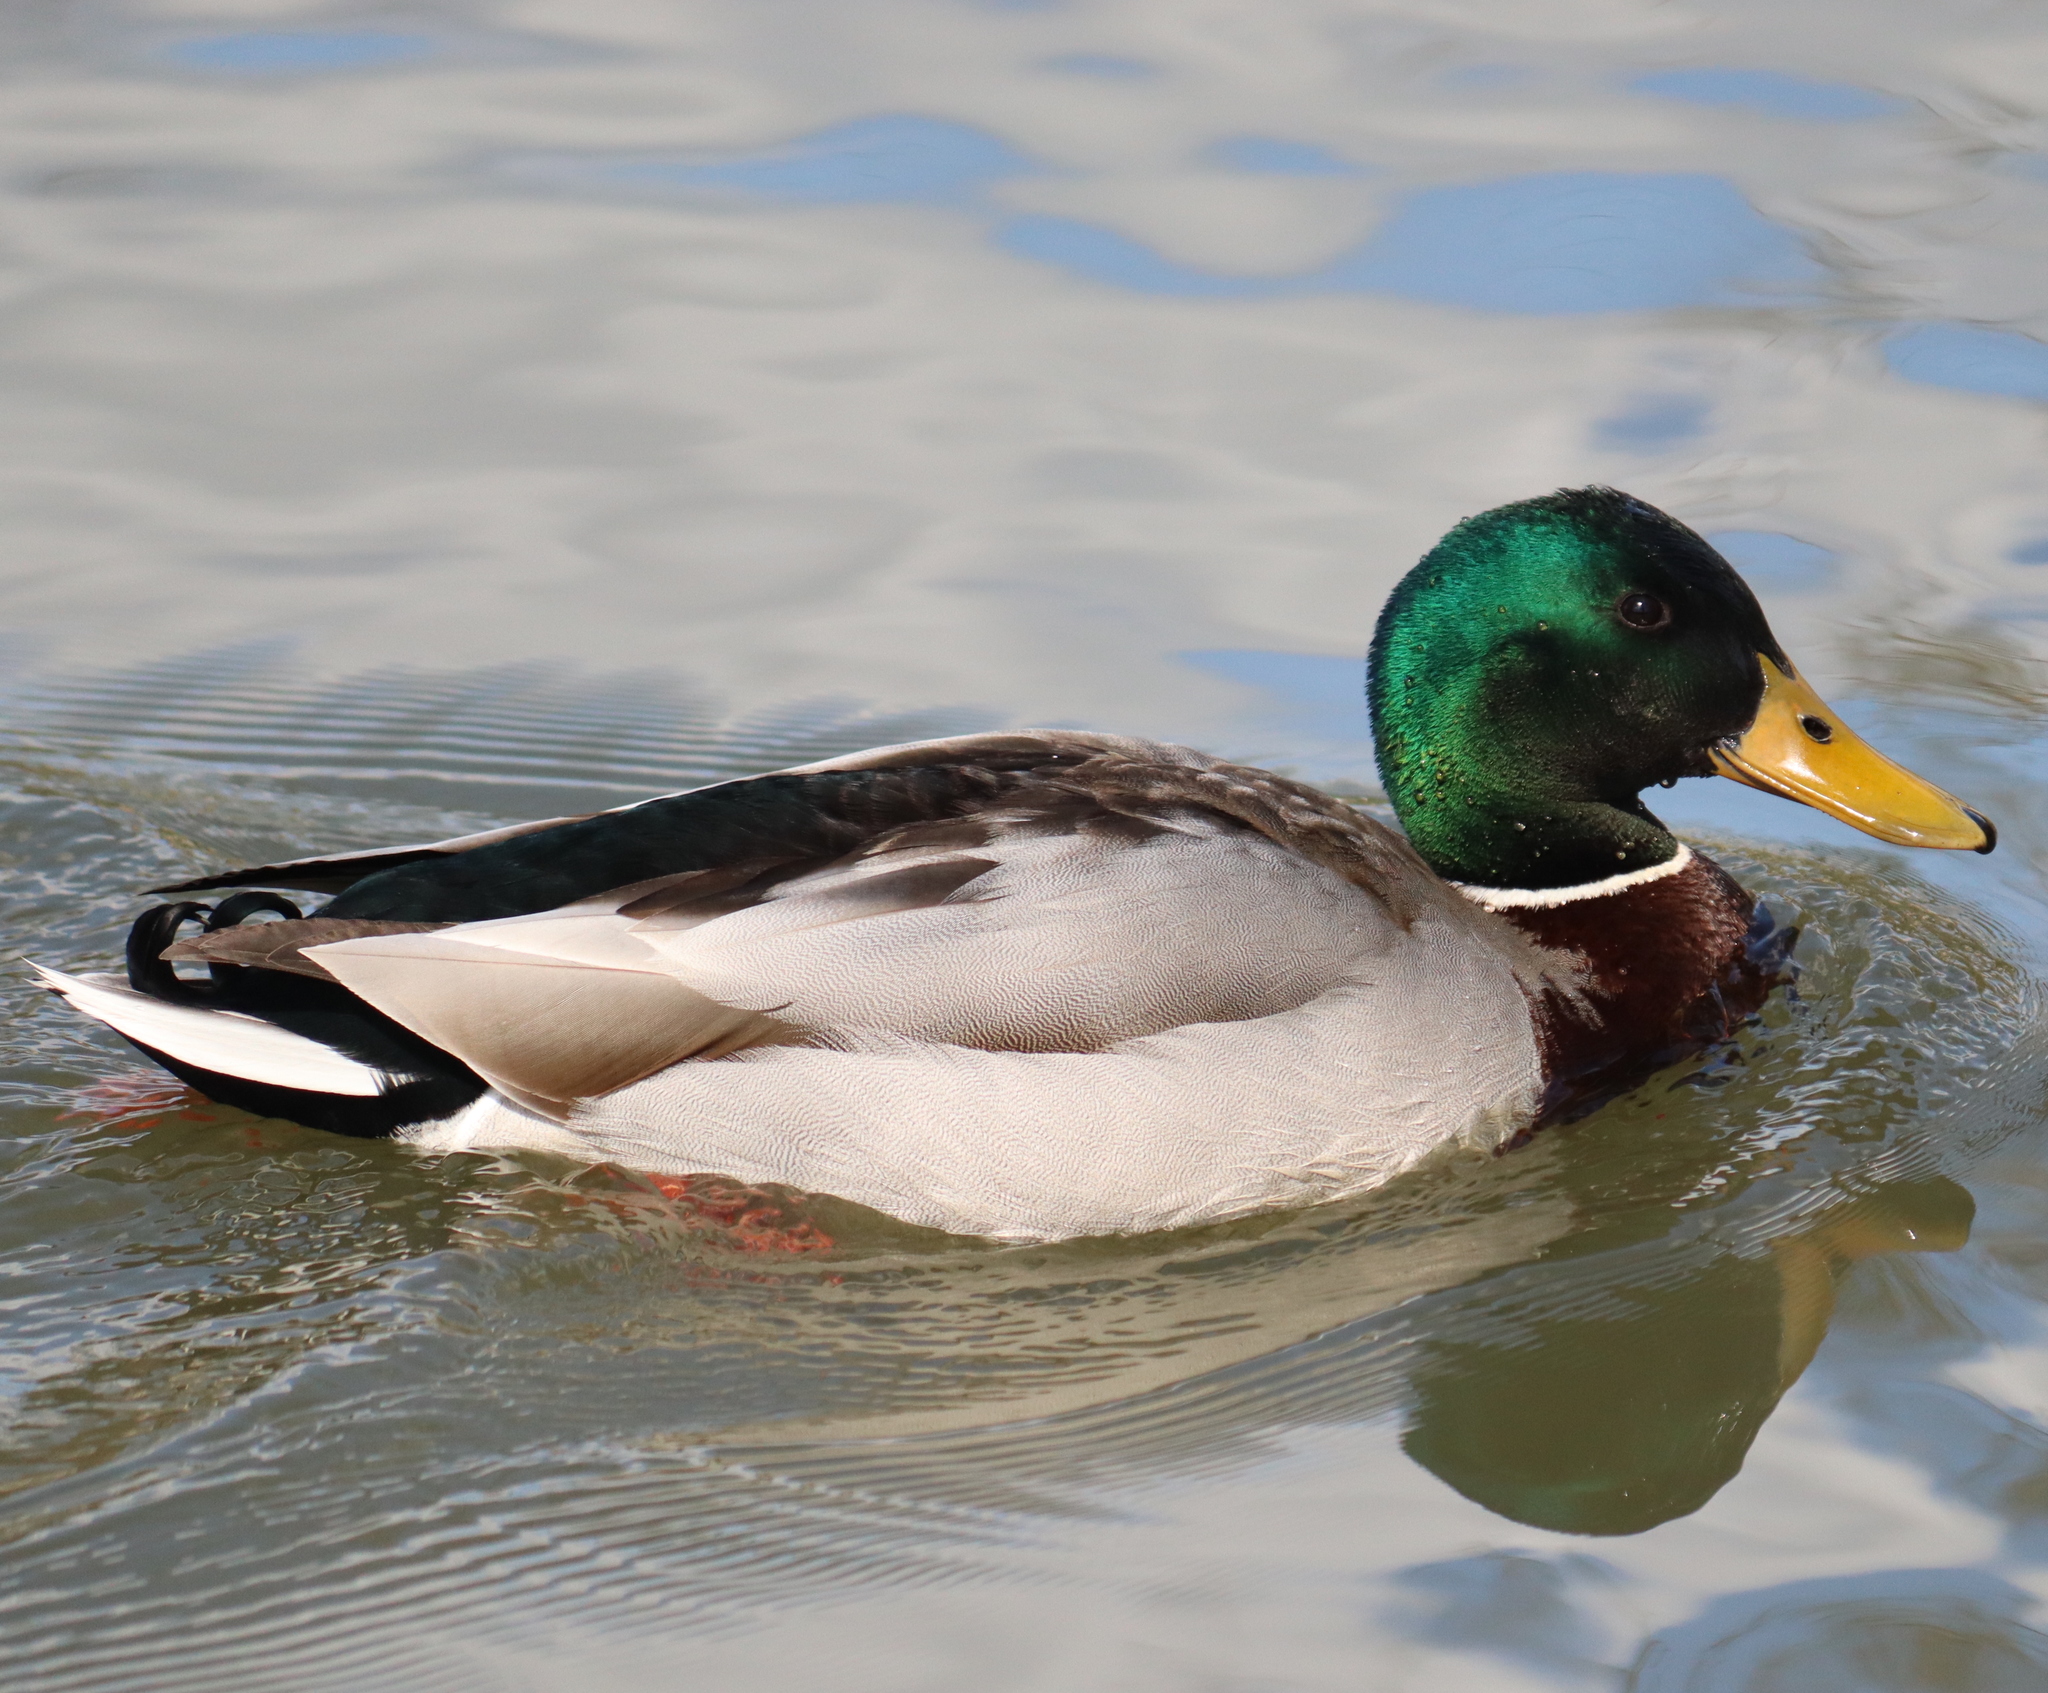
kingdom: Animalia
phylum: Chordata
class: Aves
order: Anseriformes
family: Anatidae
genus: Anas
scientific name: Anas platyrhynchos
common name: Mallard
